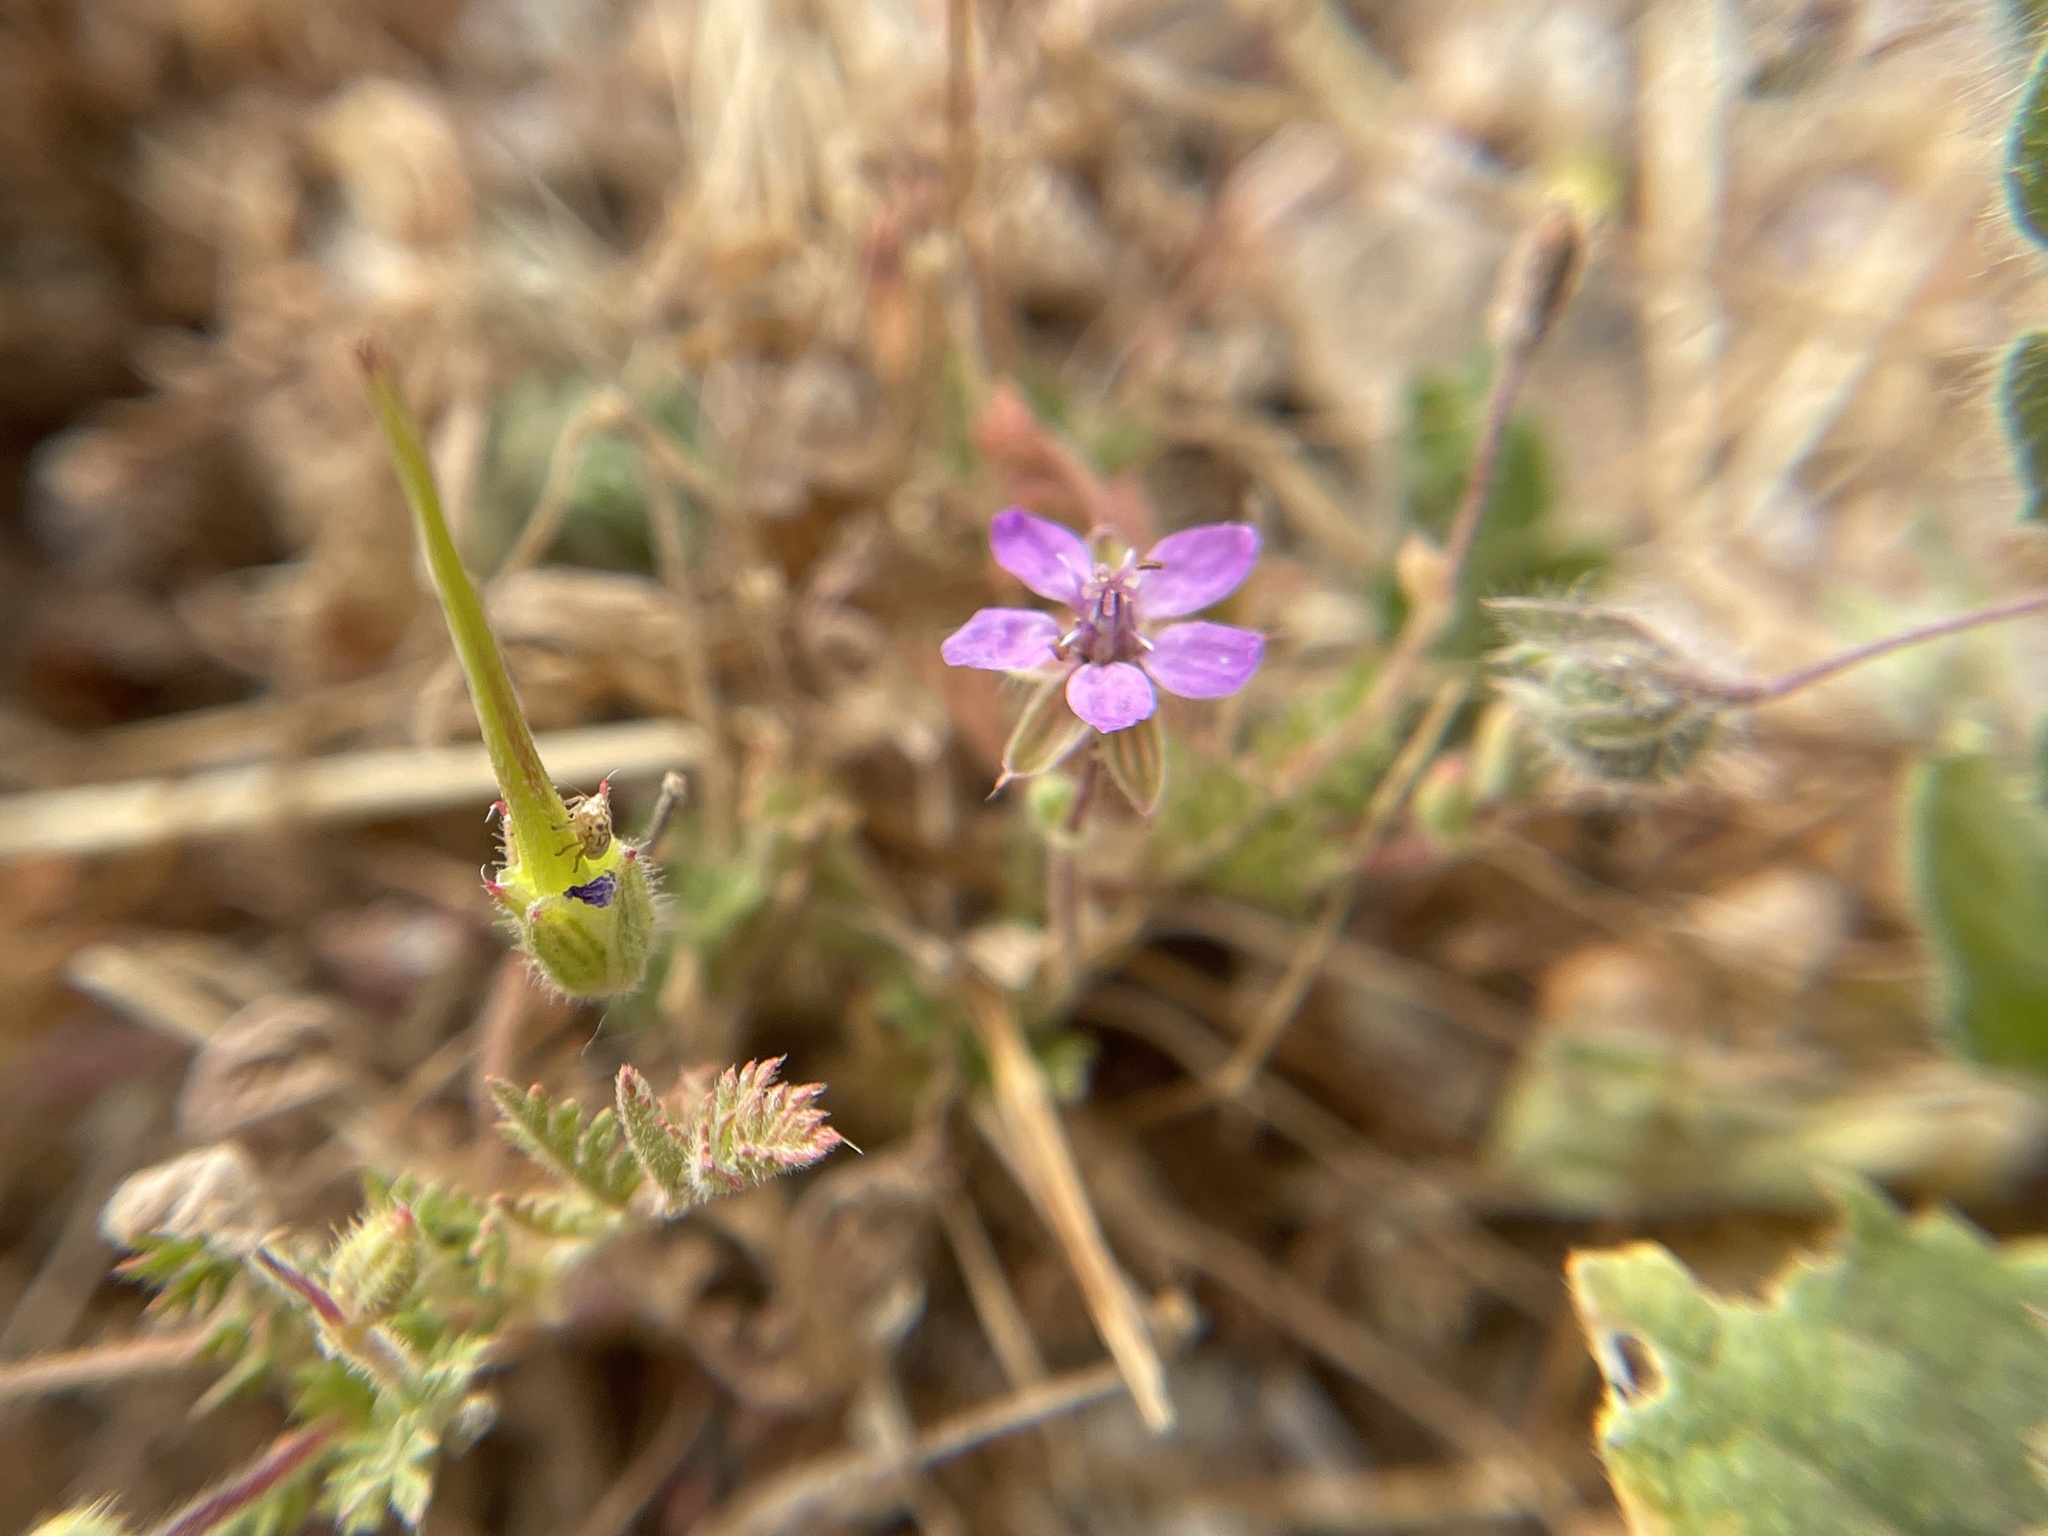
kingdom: Plantae
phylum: Tracheophyta
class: Magnoliopsida
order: Geraniales
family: Geraniaceae
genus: Erodium
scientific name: Erodium cicutarium
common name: Common stork's-bill
